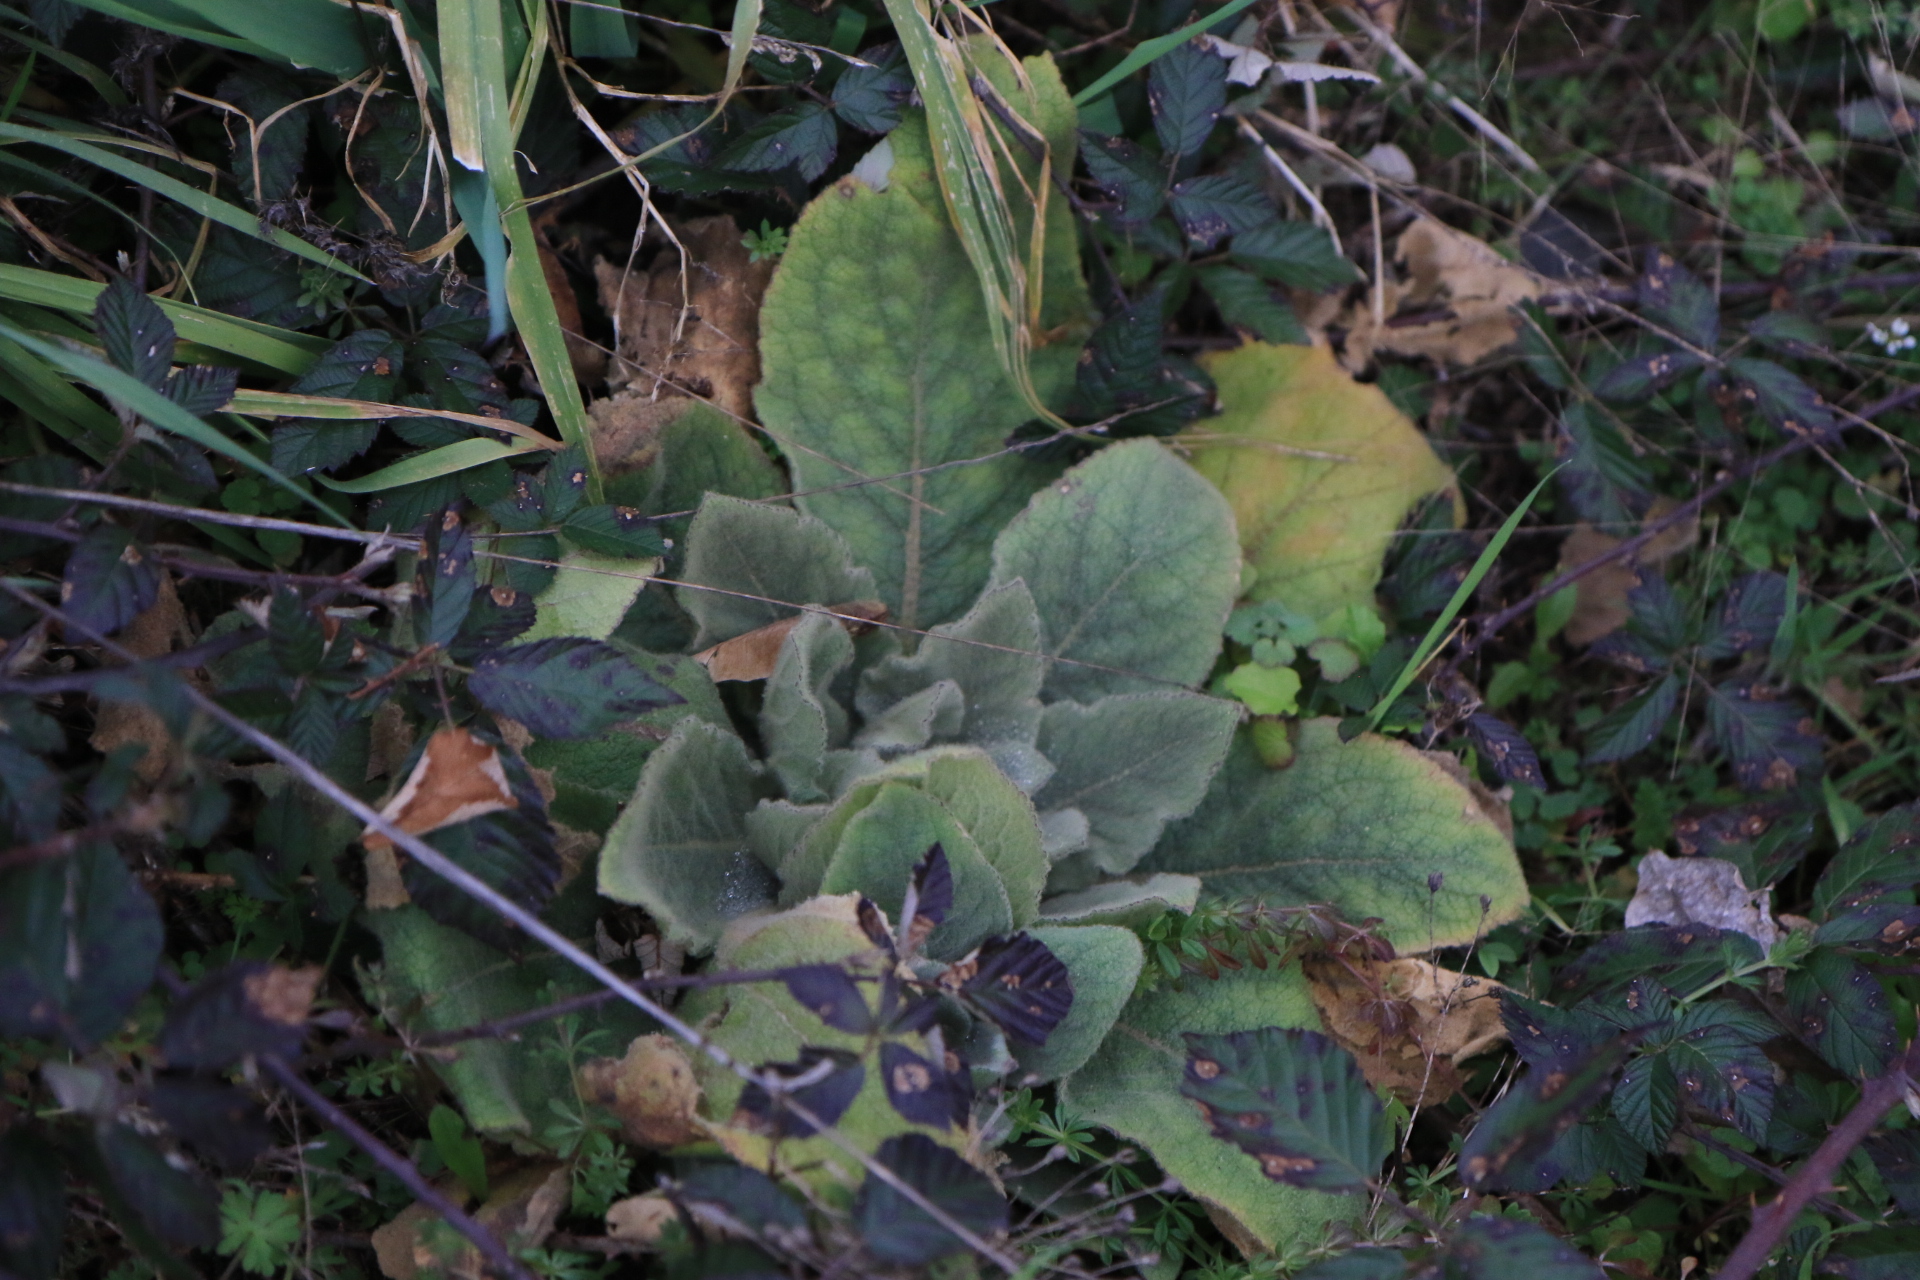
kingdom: Plantae
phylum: Tracheophyta
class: Magnoliopsida
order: Lamiales
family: Scrophulariaceae
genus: Verbascum
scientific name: Verbascum thapsus
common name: Common mullein
